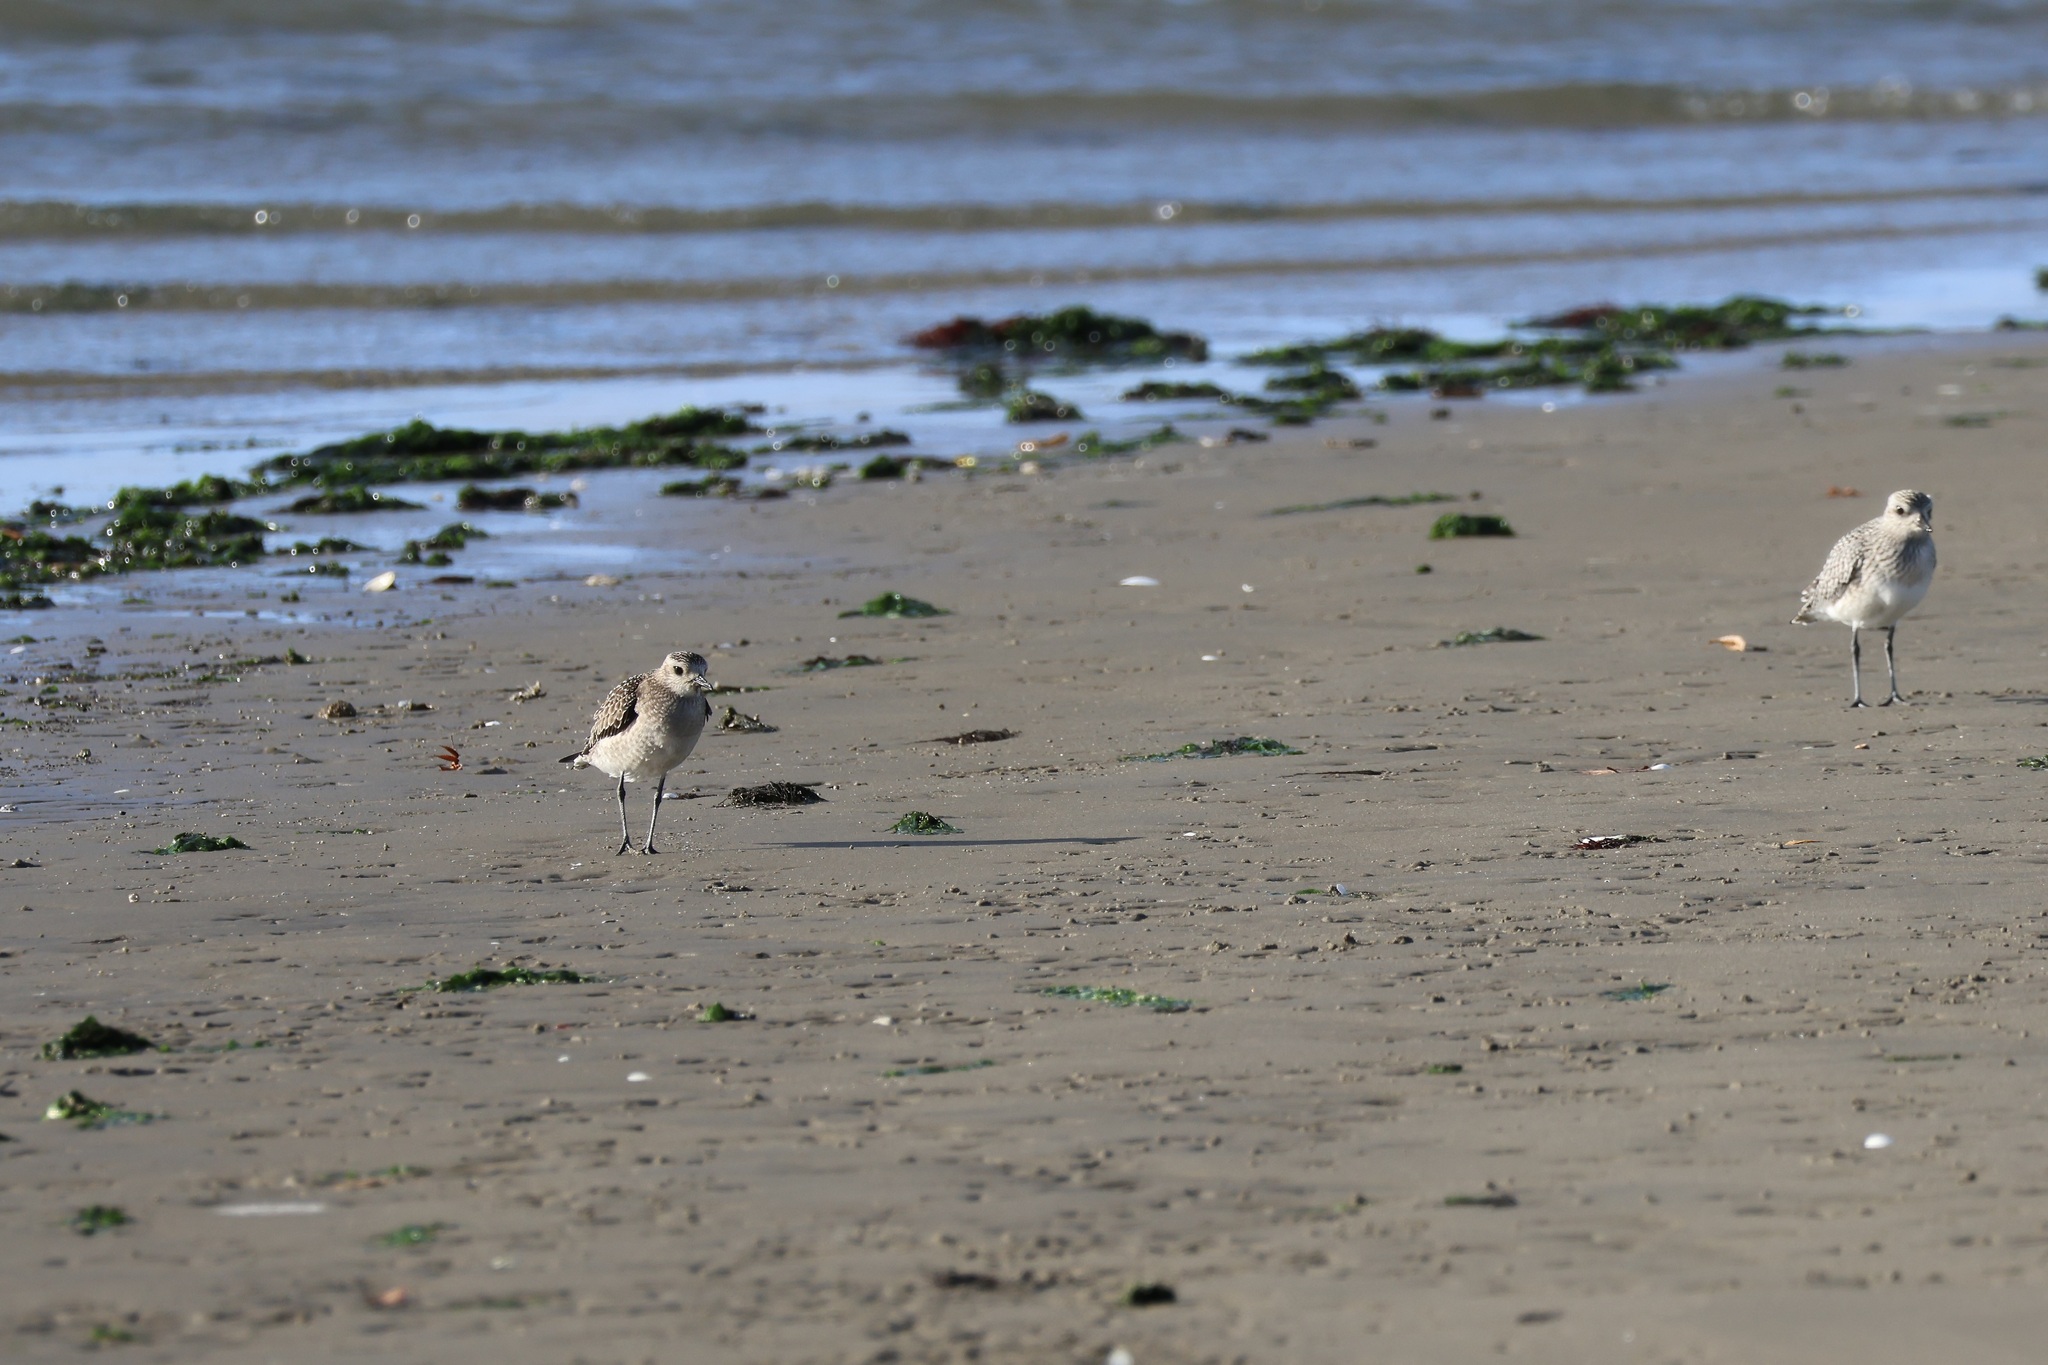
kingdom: Animalia
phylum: Chordata
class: Aves
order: Charadriiformes
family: Charadriidae
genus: Pluvialis
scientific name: Pluvialis dominica
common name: American golden plover
